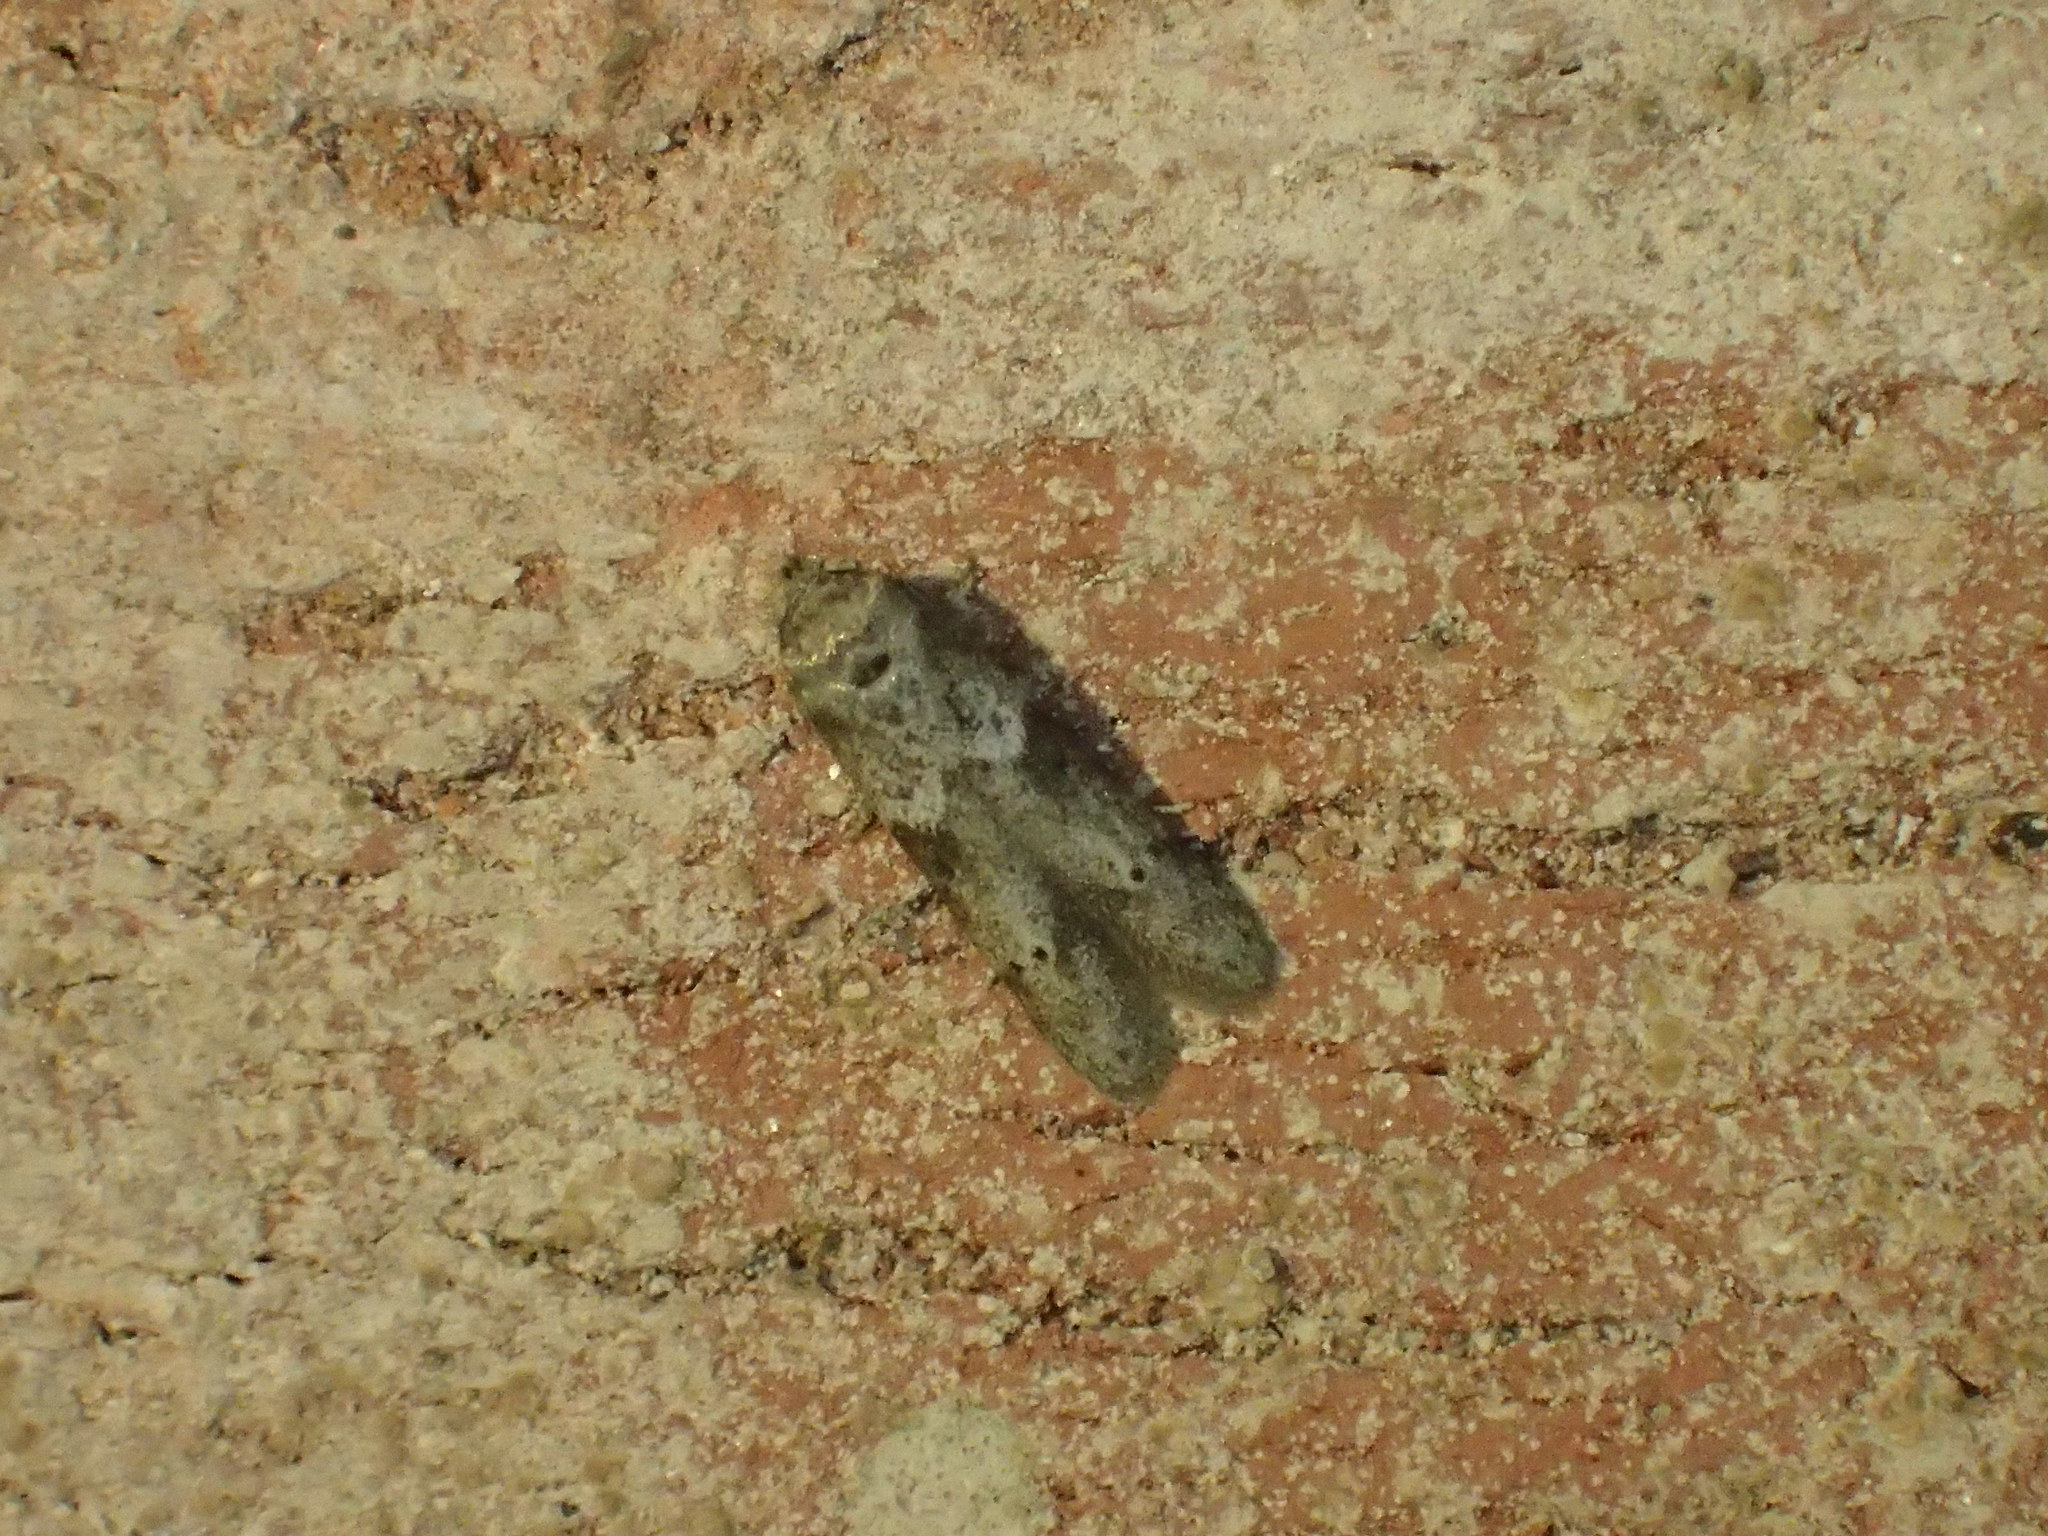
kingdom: Animalia
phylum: Arthropoda
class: Insecta
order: Lepidoptera
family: Blastobasidae
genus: Blastobasis
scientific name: Blastobasis glandulella
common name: Acorn moth
